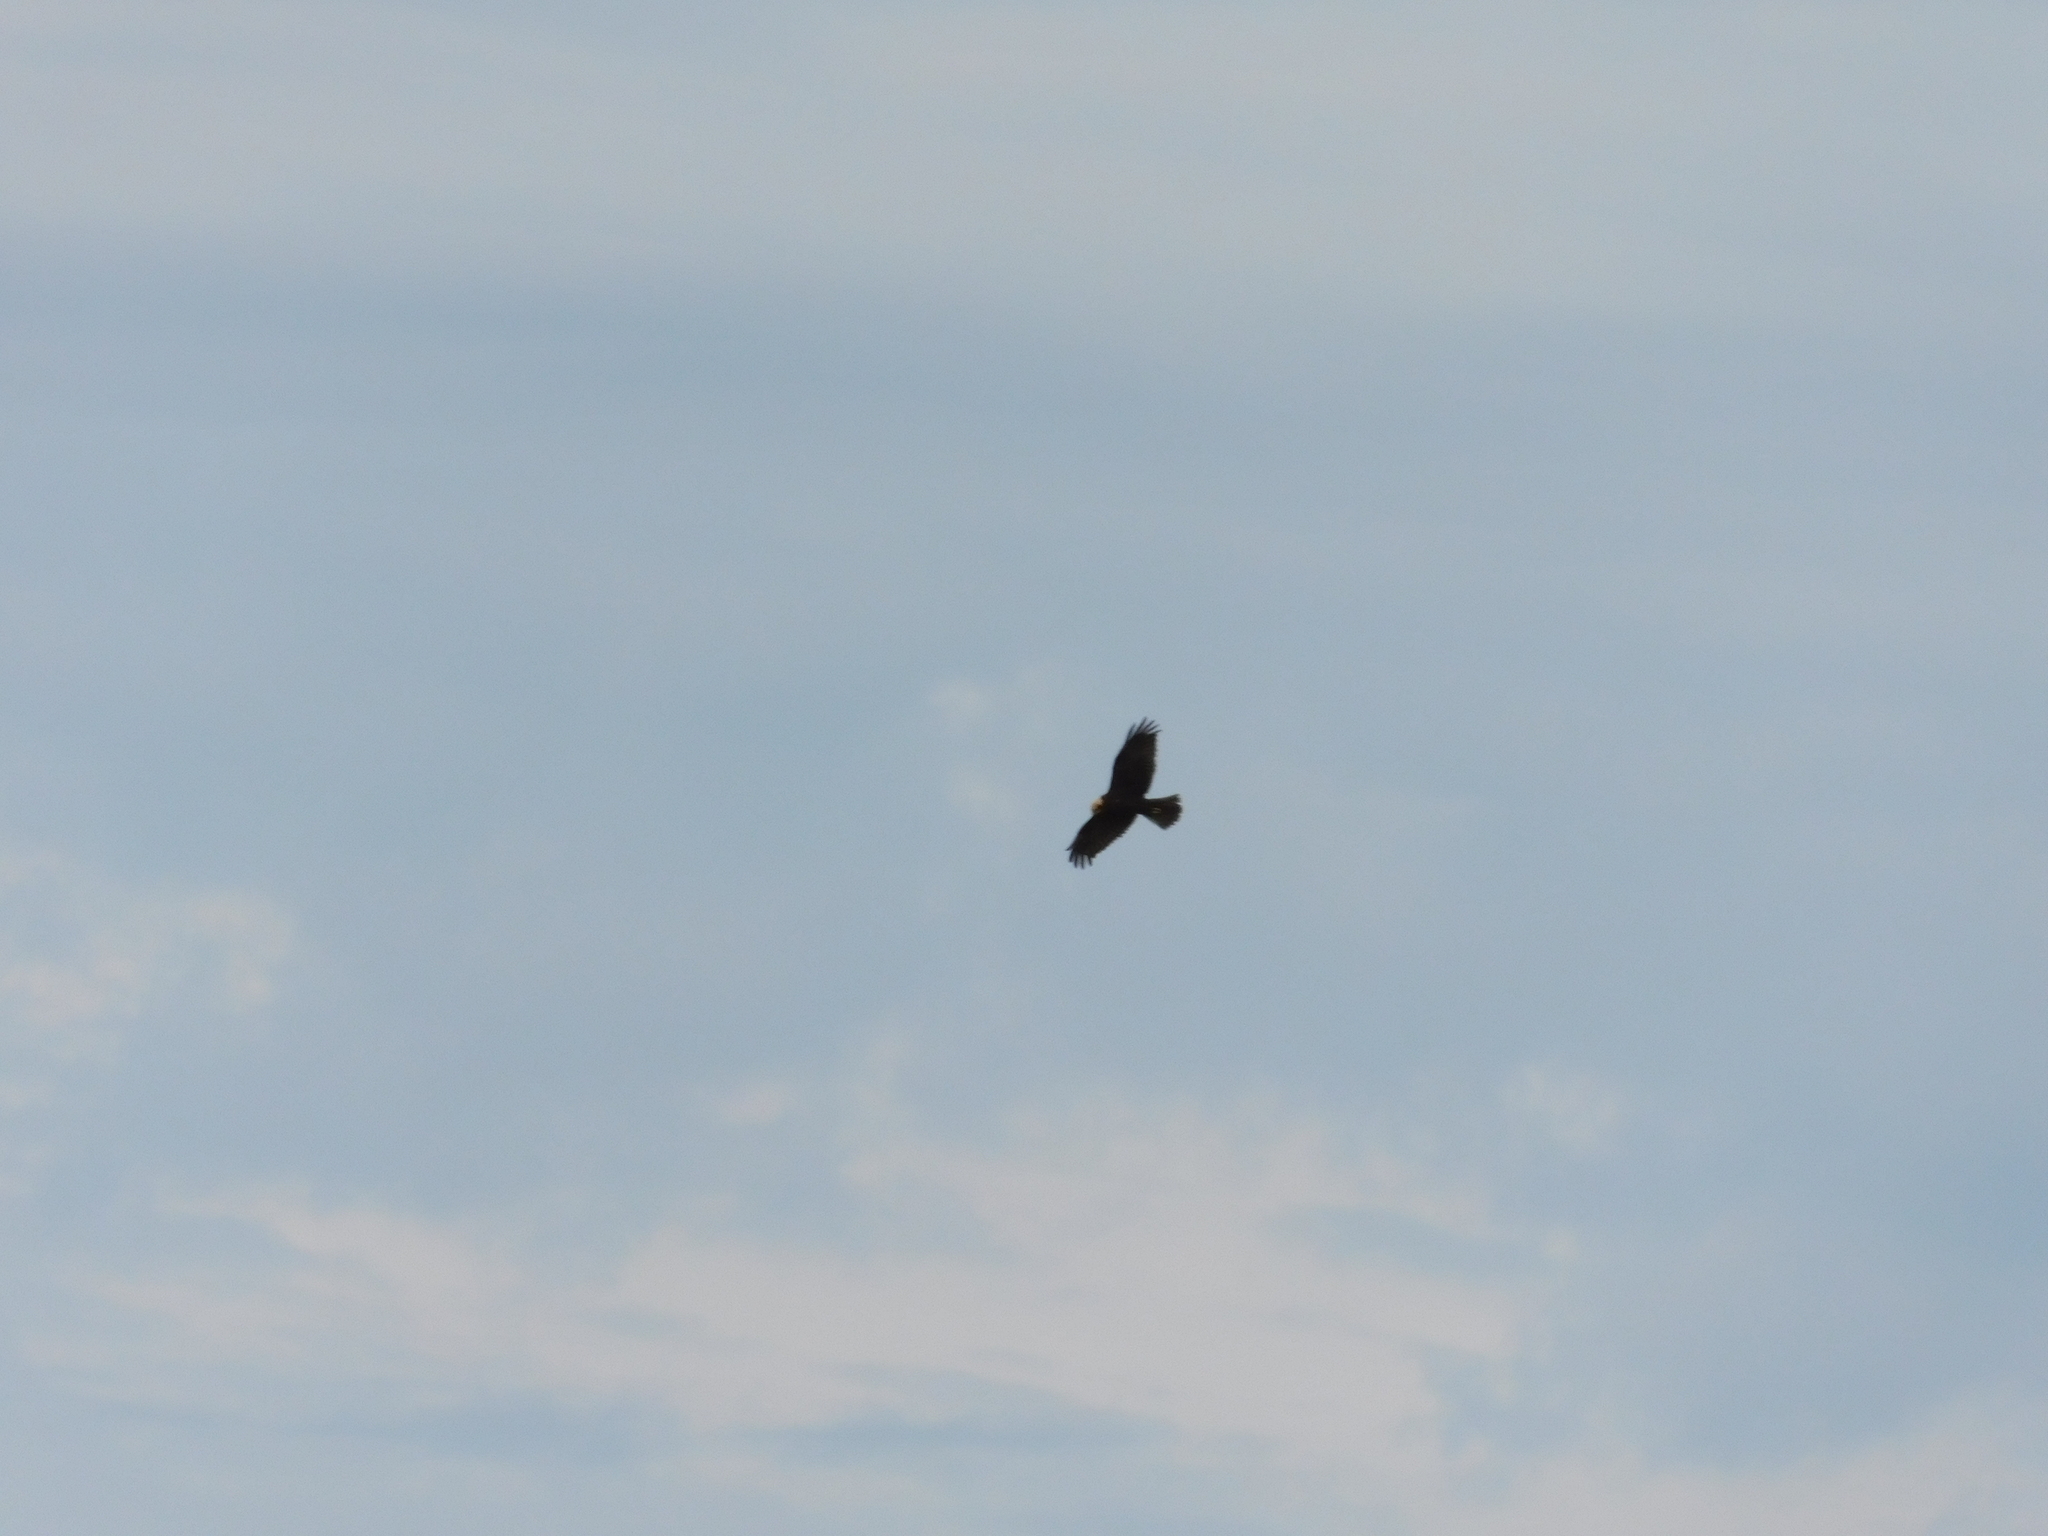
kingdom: Animalia
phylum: Chordata
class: Aves
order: Accipitriformes
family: Accipitridae
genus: Circus
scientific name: Circus aeruginosus
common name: Western marsh harrier
